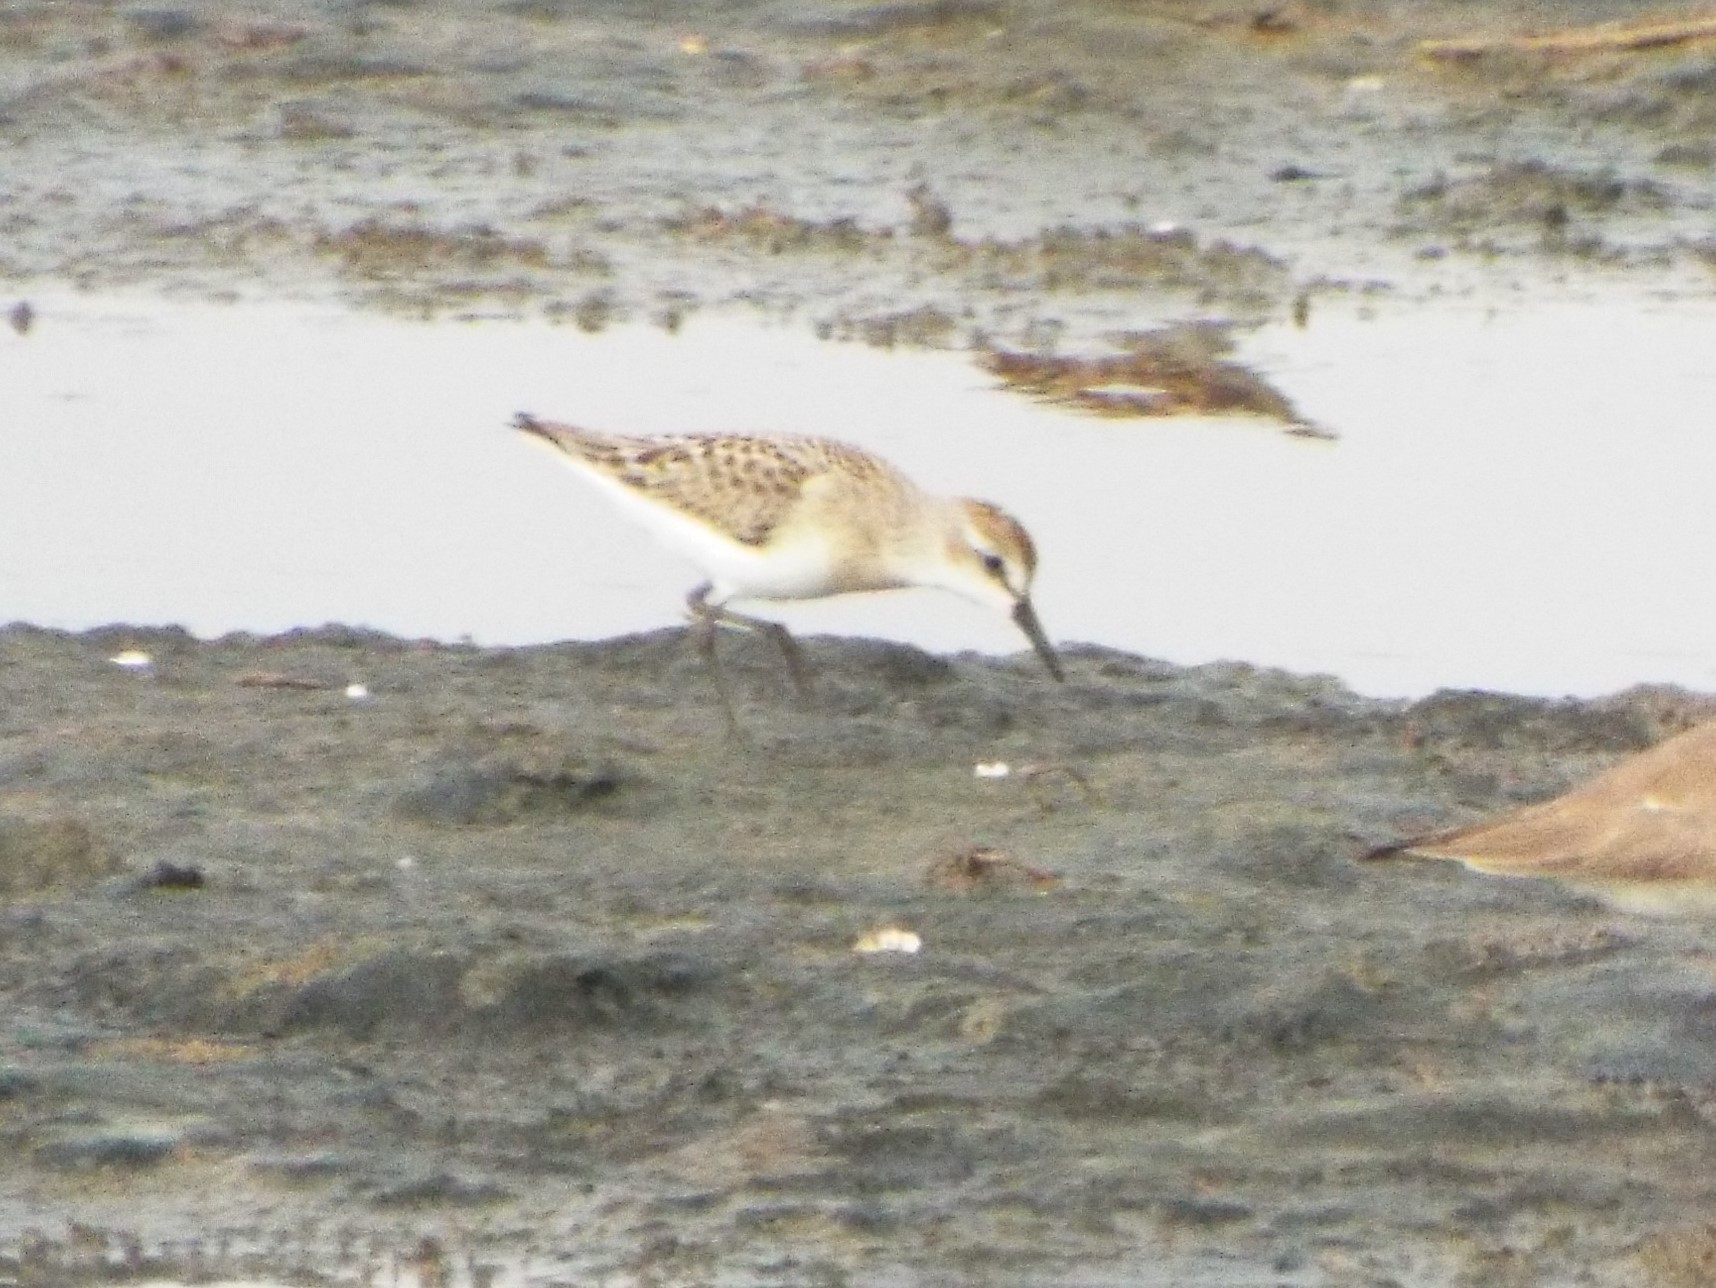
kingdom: Animalia
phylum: Chordata
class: Aves
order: Charadriiformes
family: Scolopacidae
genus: Calidris
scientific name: Calidris pusilla
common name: Semipalmated sandpiper
